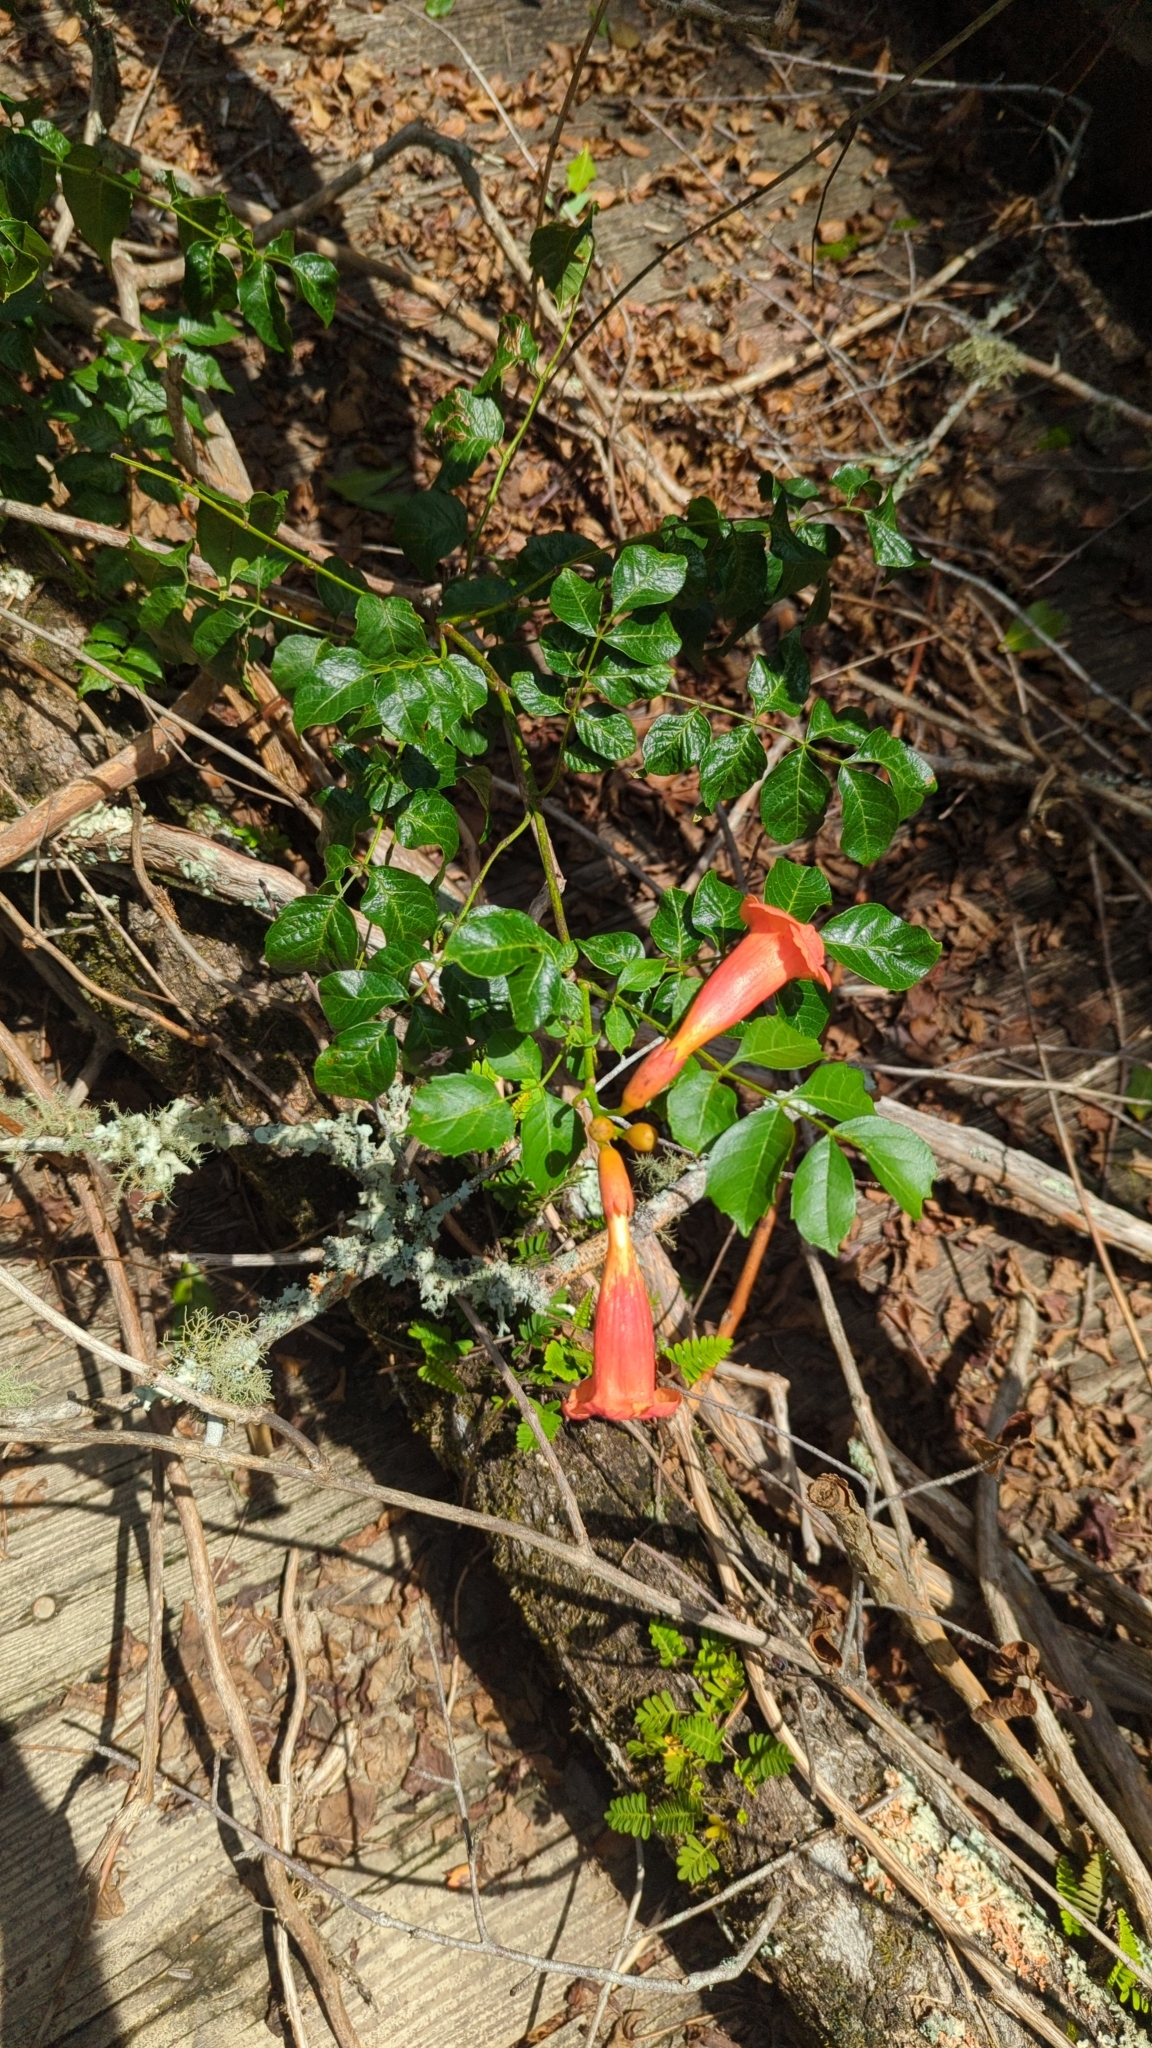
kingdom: Plantae
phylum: Tracheophyta
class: Magnoliopsida
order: Lamiales
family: Bignoniaceae
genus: Campsis
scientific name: Campsis radicans
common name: Trumpet-creeper
